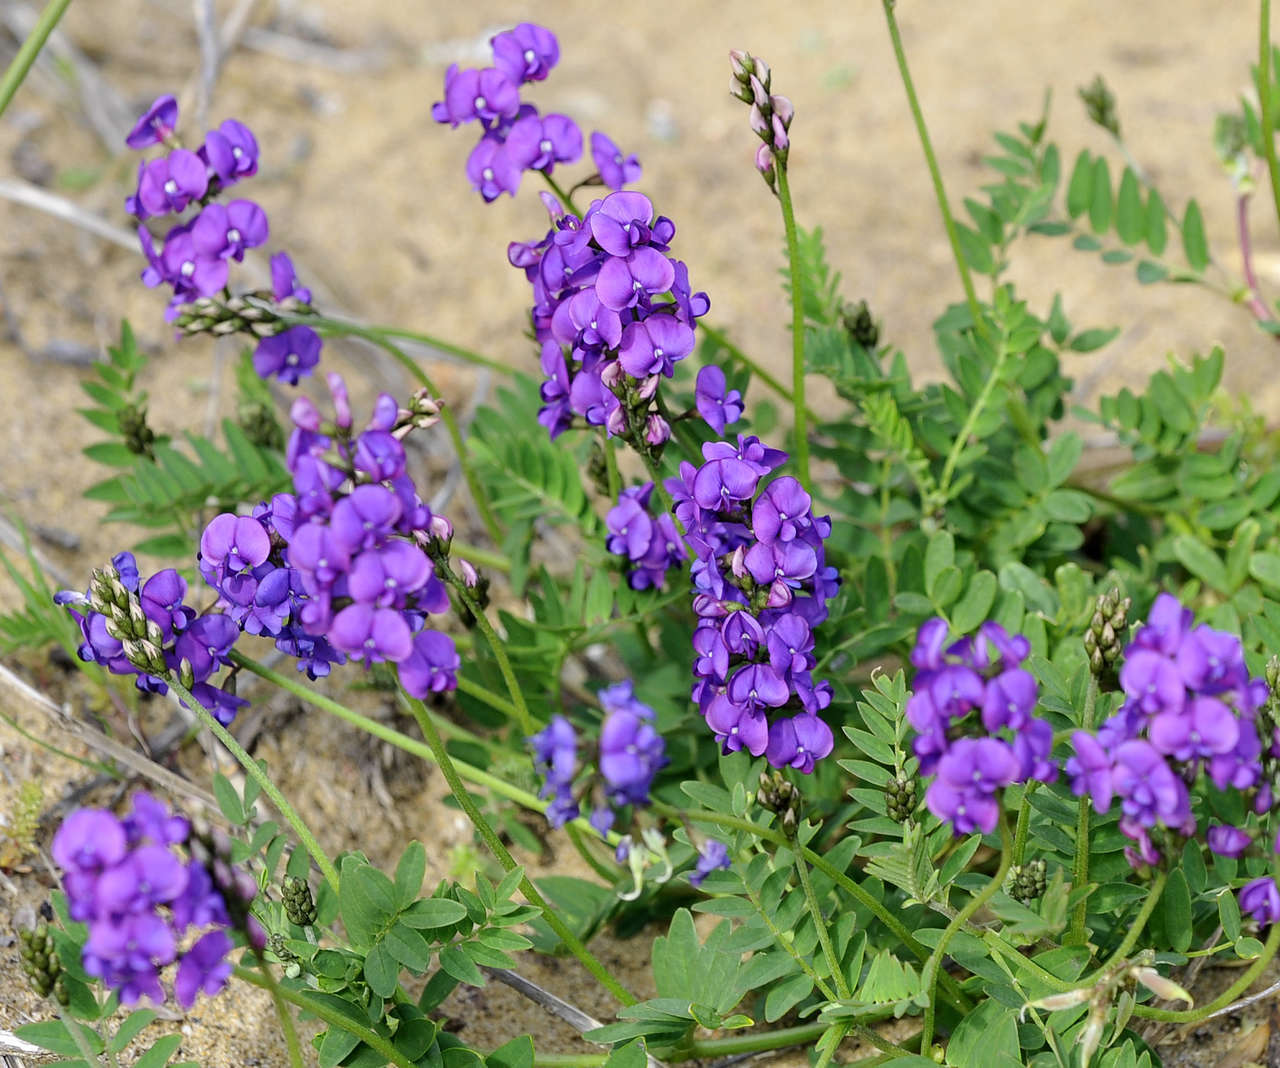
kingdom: Plantae
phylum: Tracheophyta
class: Magnoliopsida
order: Fabales
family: Fabaceae
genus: Swainsona
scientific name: Swainsona lessertiifolia
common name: Bog-pea
